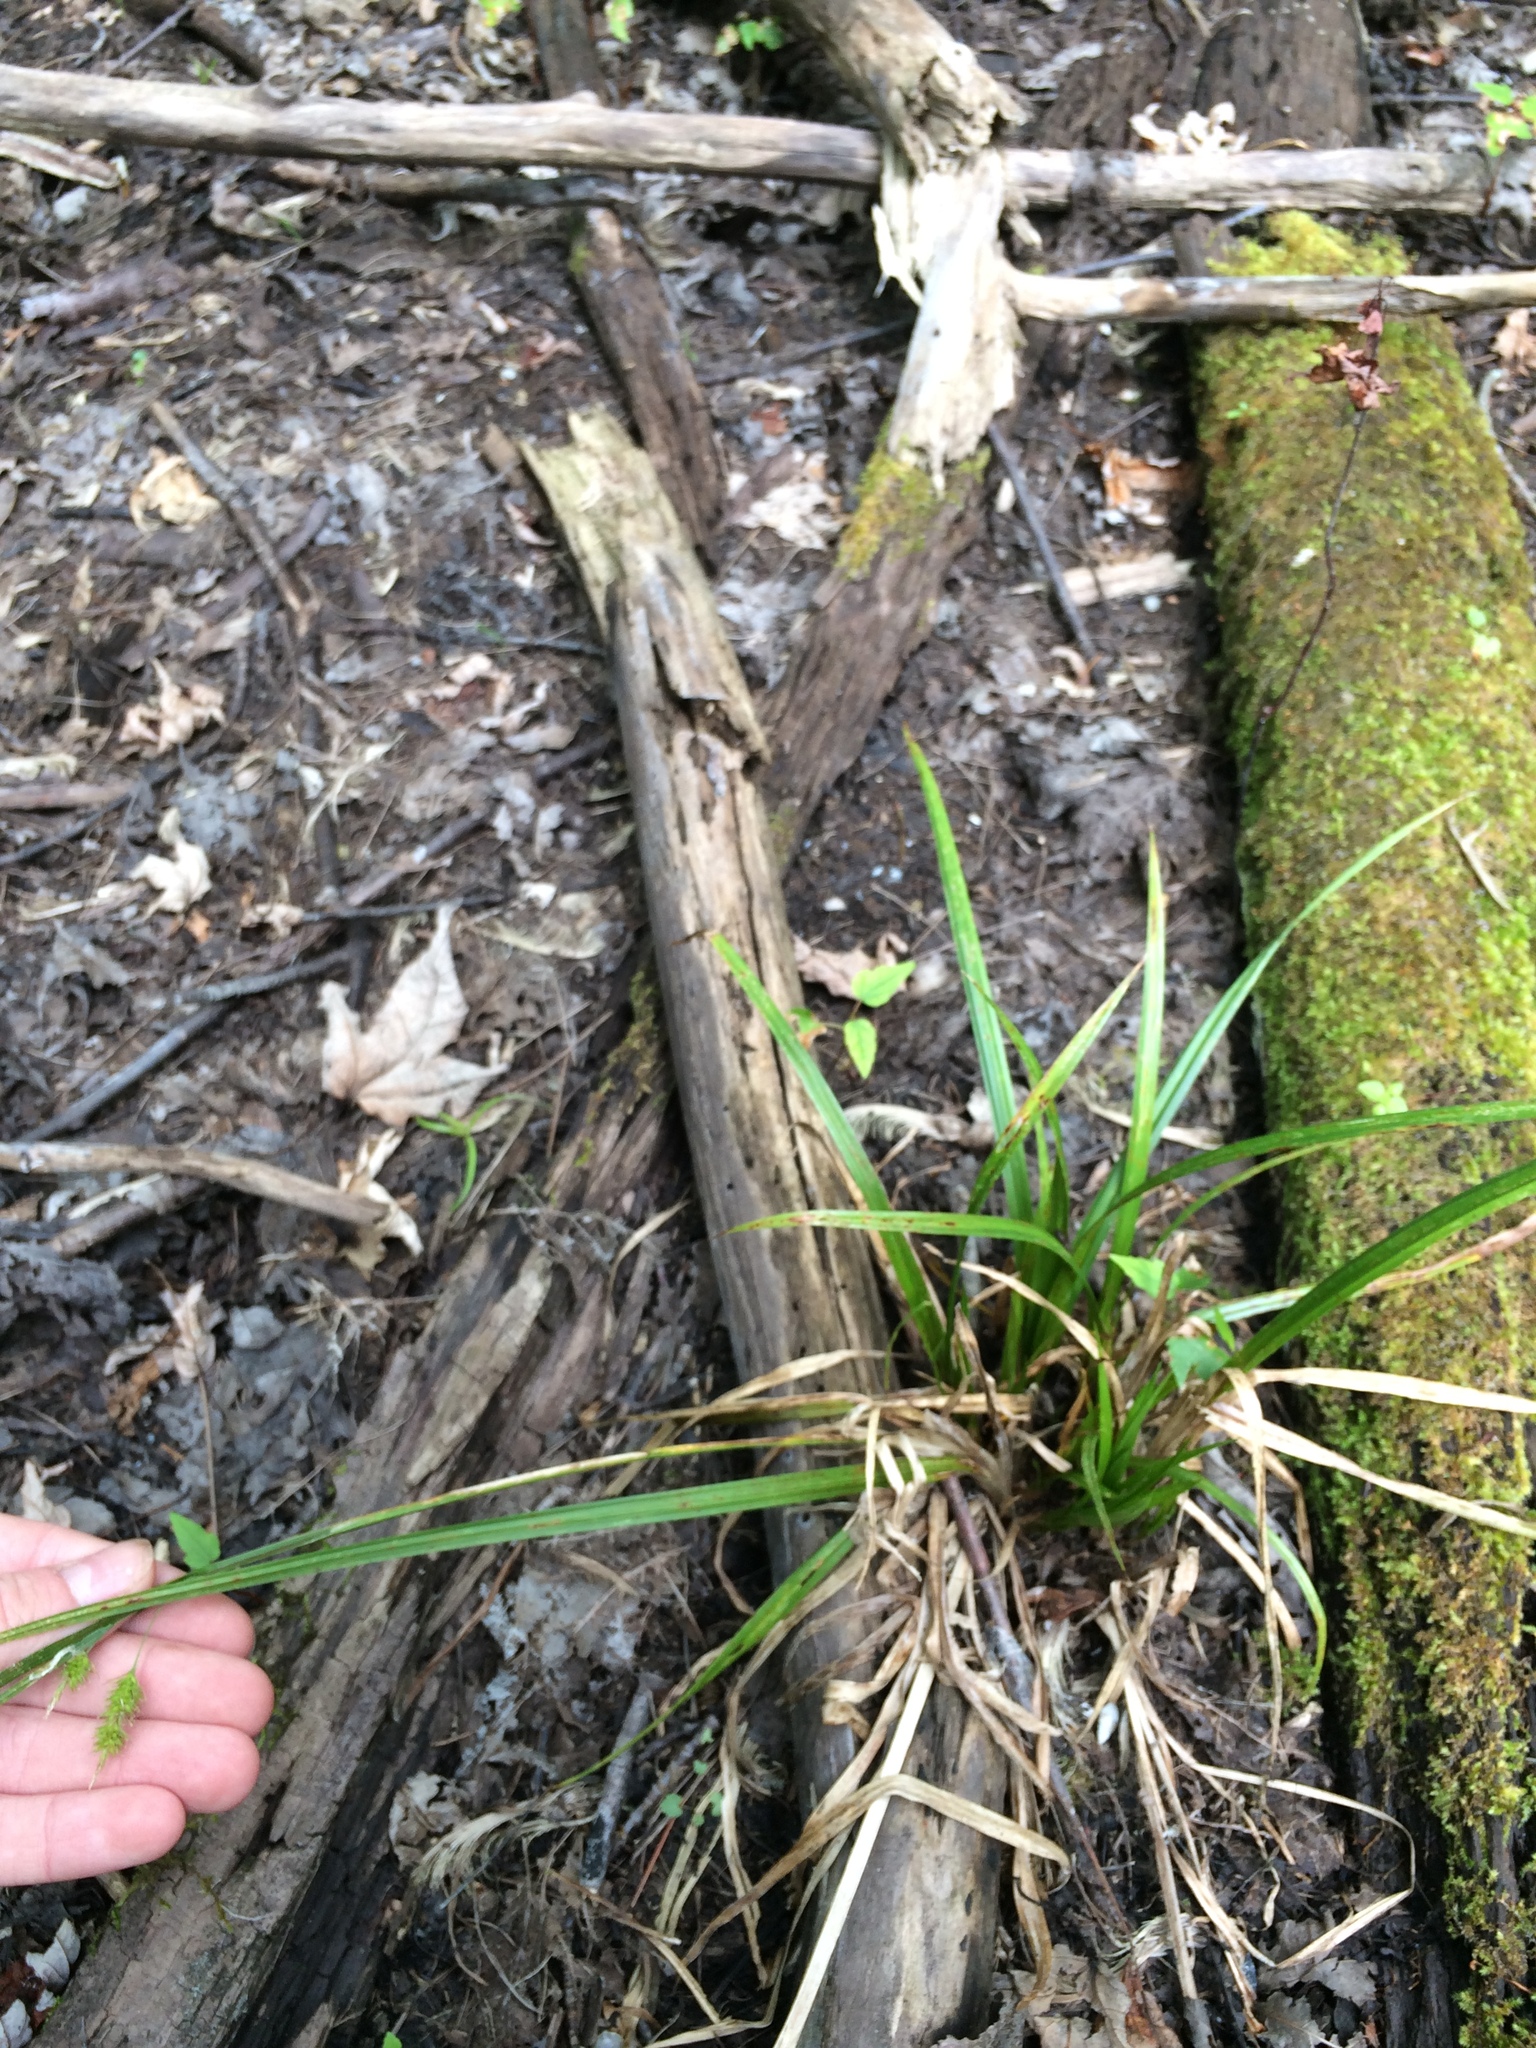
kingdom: Plantae
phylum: Tracheophyta
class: Liliopsida
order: Poales
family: Cyperaceae
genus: Carex
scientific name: Carex pseudocyperus
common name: Cyperus sedge
